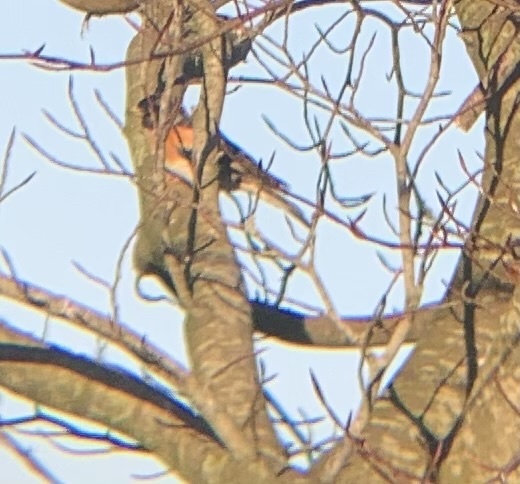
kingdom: Animalia
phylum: Chordata
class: Aves
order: Passeriformes
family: Fringillidae
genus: Fringilla
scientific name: Fringilla montifringilla
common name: Brambling
